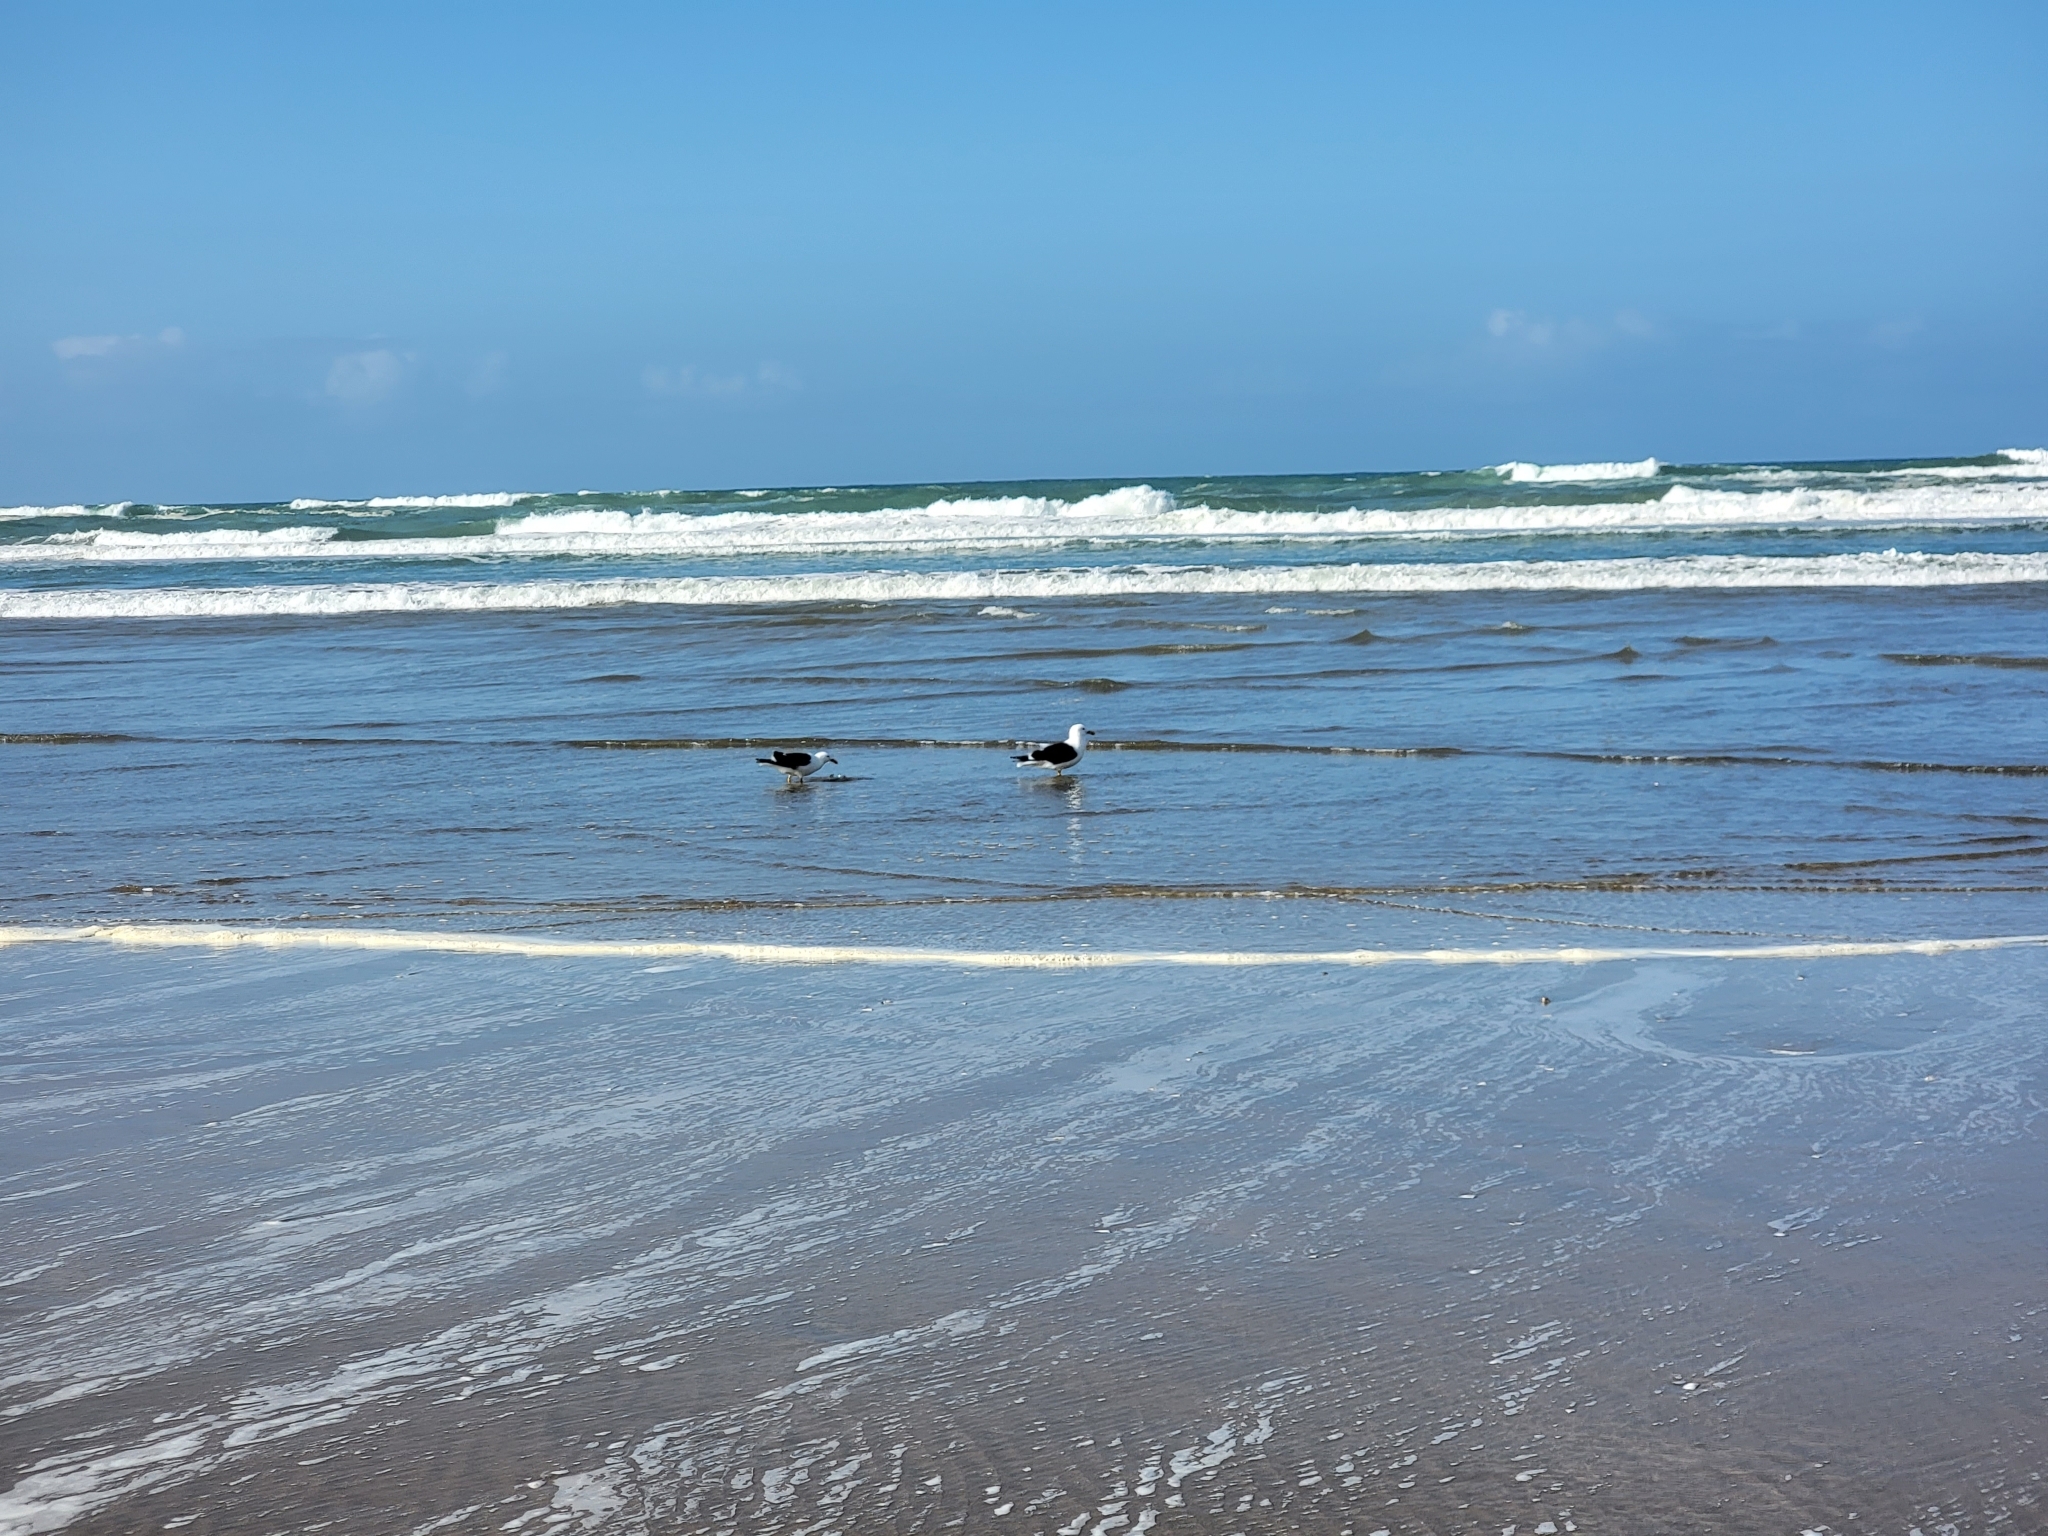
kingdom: Animalia
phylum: Chordata
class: Aves
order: Charadriiformes
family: Laridae
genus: Larus
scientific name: Larus dominicanus
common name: Kelp gull
